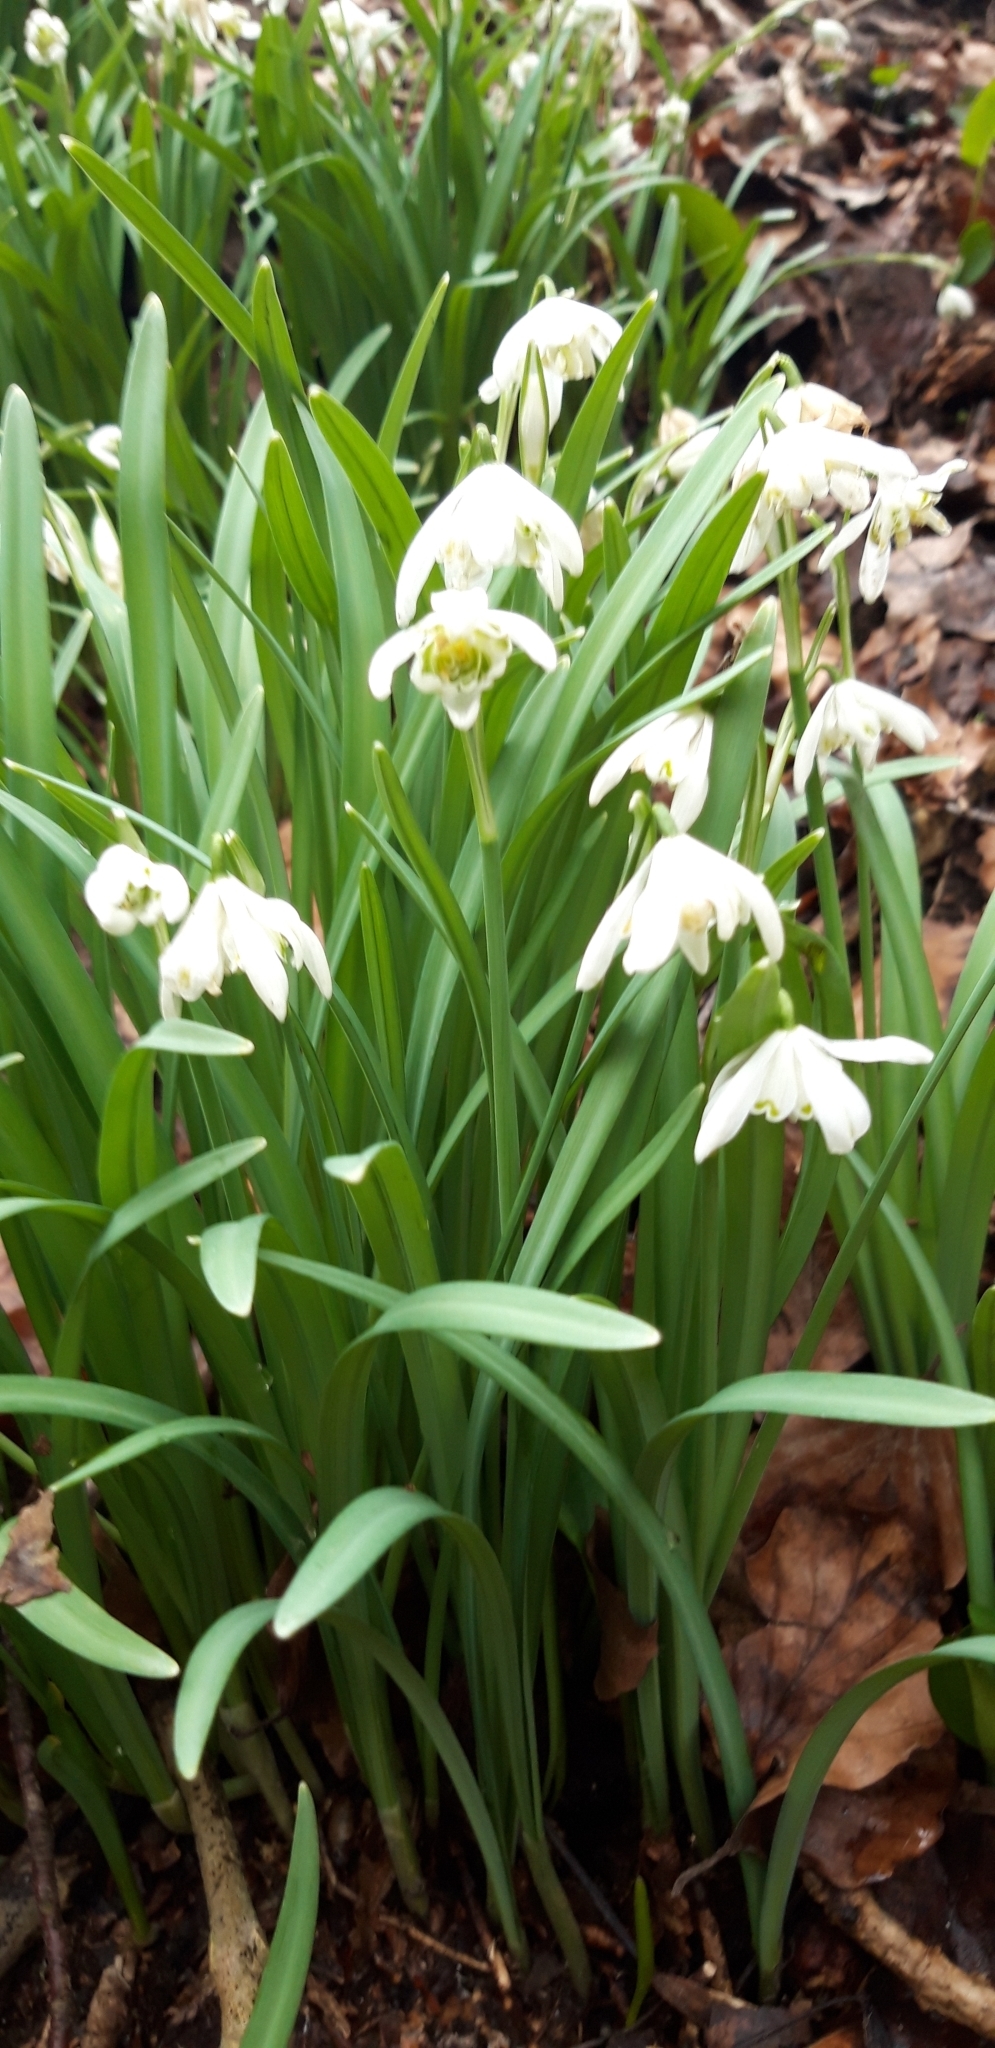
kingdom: Plantae
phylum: Tracheophyta
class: Liliopsida
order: Asparagales
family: Amaryllidaceae
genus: Galanthus
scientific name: Galanthus nivalis
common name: Snowdrop
